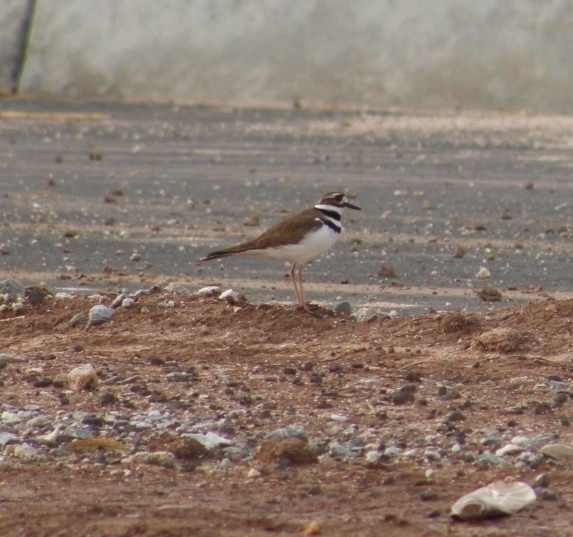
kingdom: Animalia
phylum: Chordata
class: Aves
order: Charadriiformes
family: Charadriidae
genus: Charadrius
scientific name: Charadrius vociferus
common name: Killdeer
